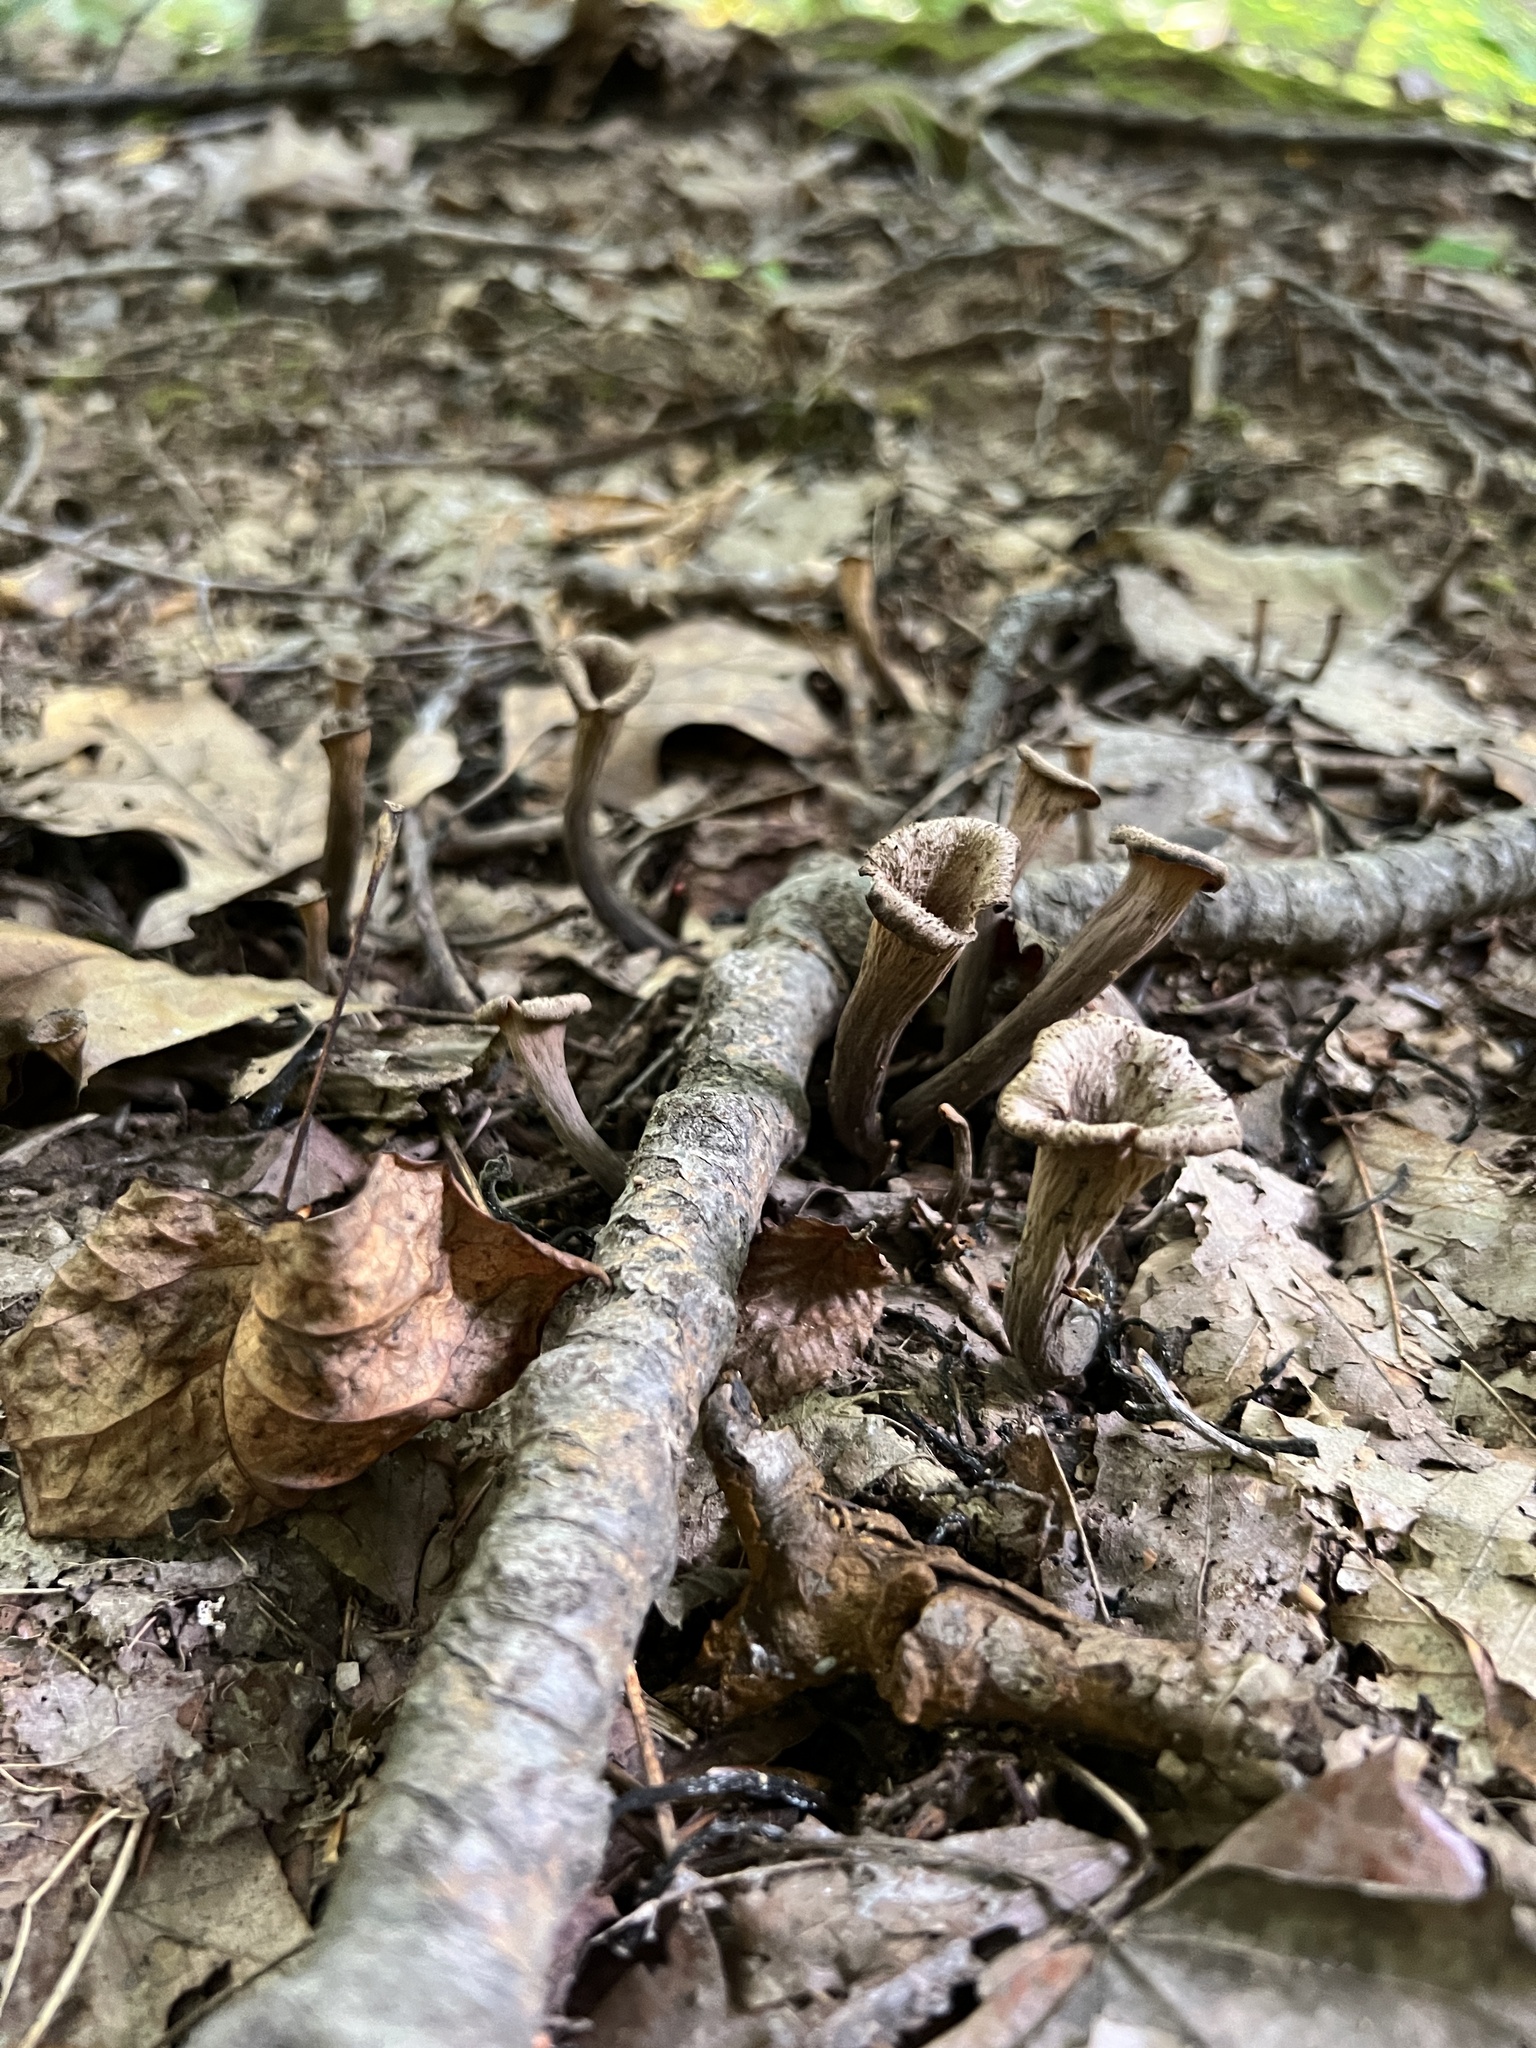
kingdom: Fungi
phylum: Basidiomycota
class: Agaricomycetes
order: Cantharellales
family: Hydnaceae
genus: Craterellus
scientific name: Craterellus cornucopioides
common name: Horn of plenty
